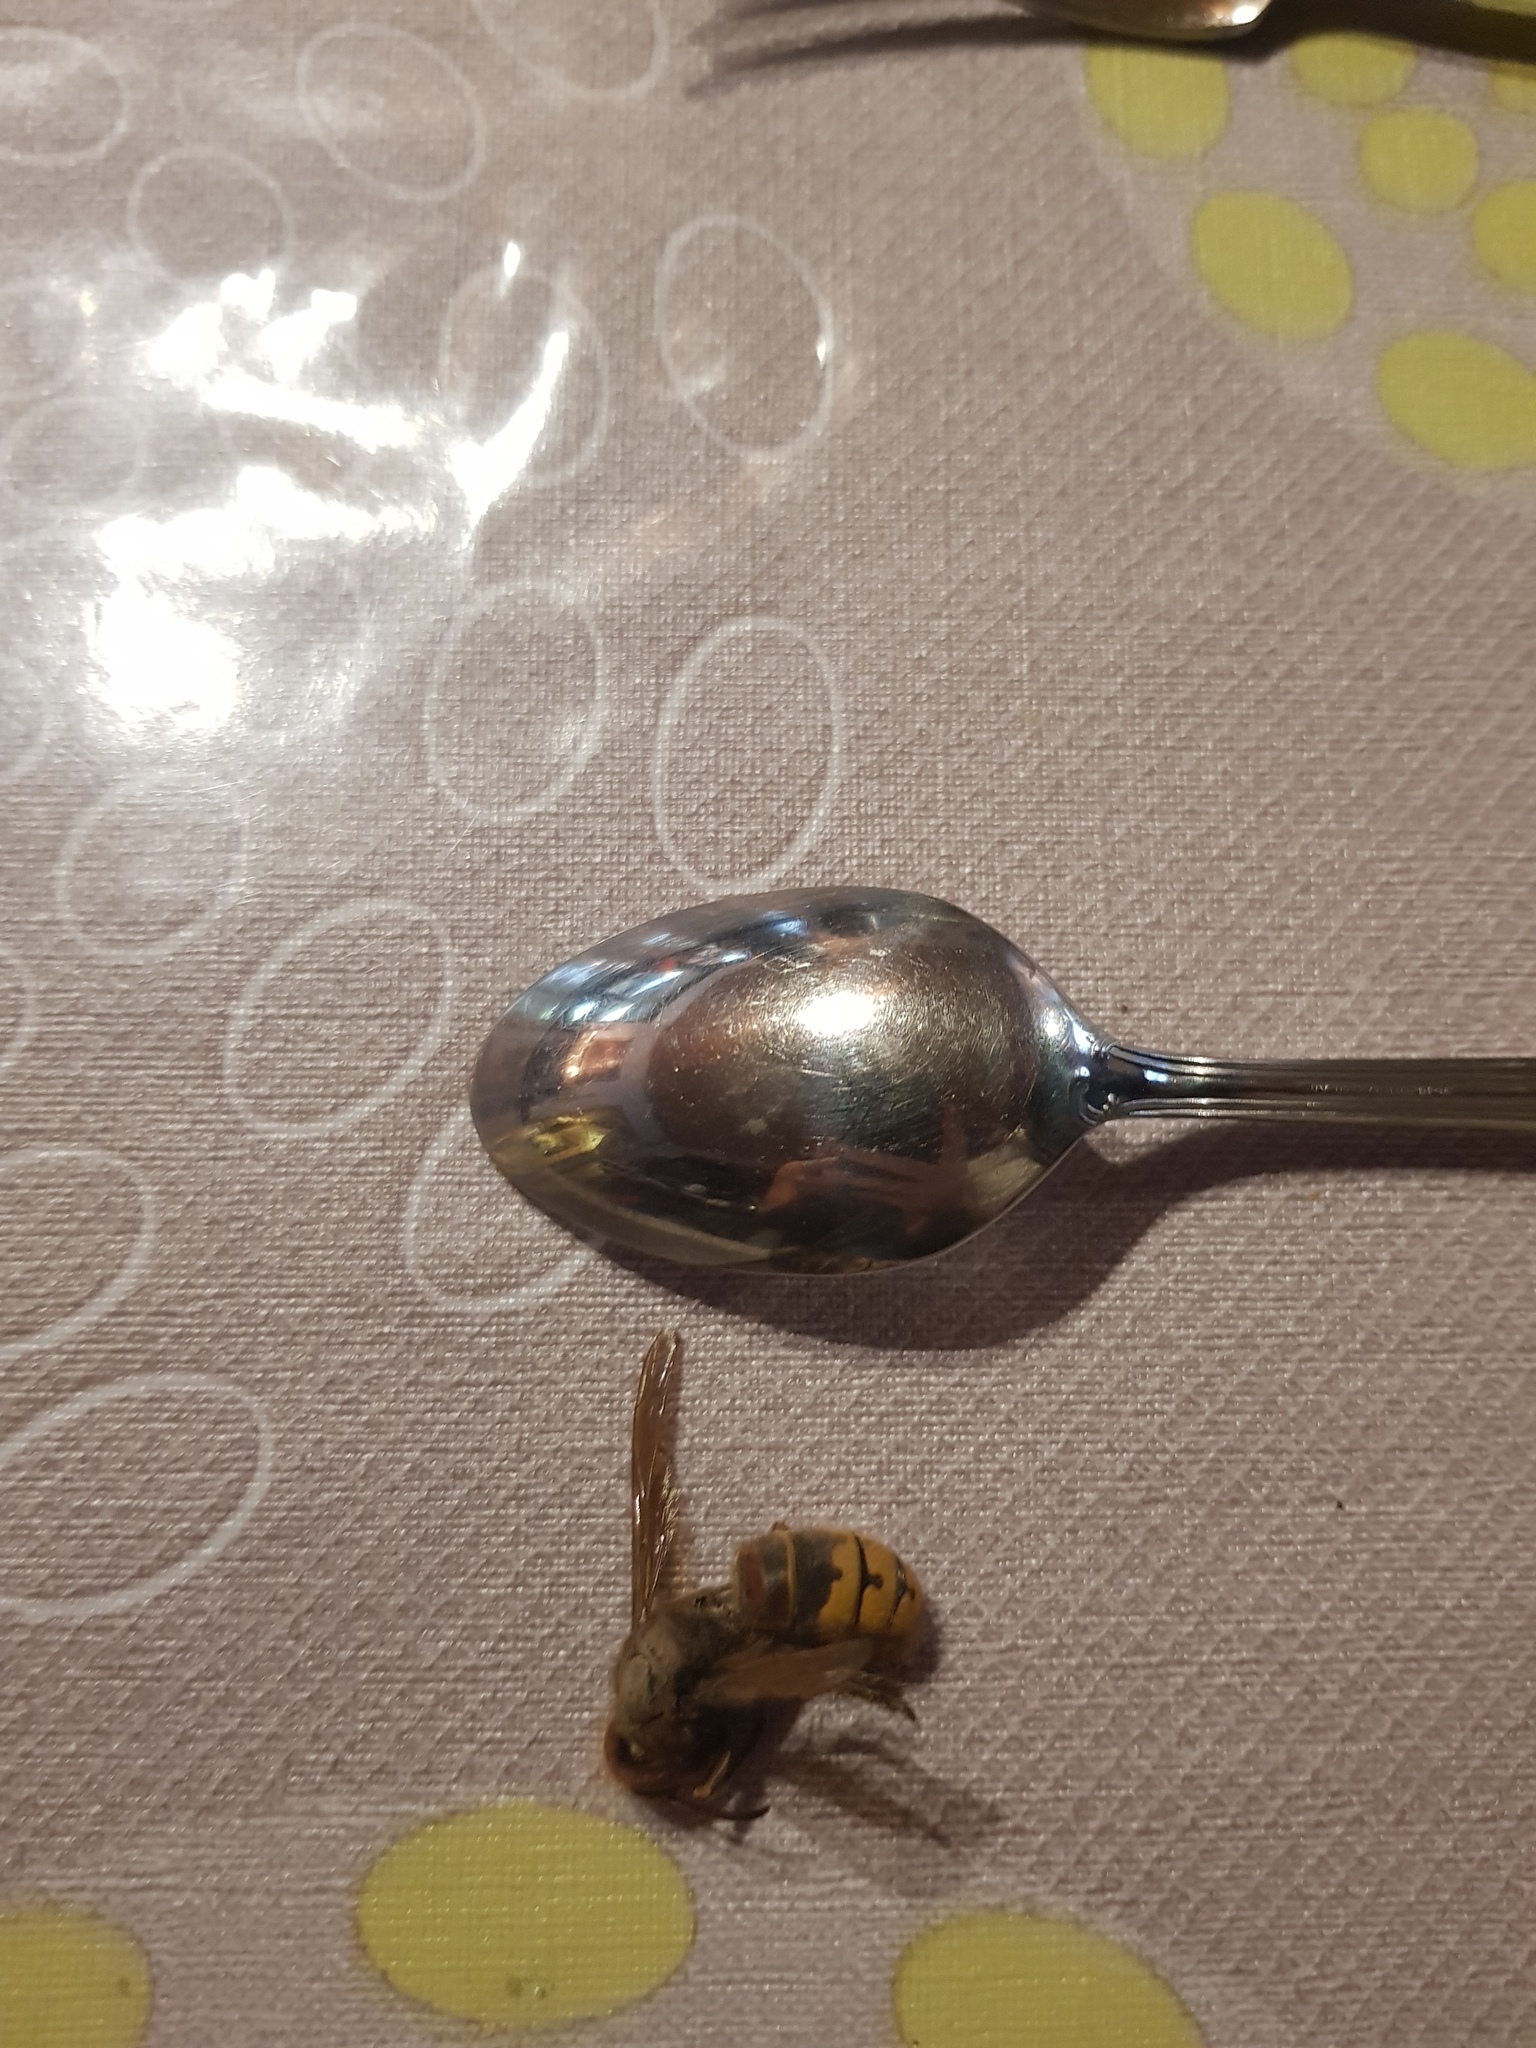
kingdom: Animalia
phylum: Arthropoda
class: Insecta
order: Hymenoptera
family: Vespidae
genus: Vespa
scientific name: Vespa crabro
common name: Hornet
